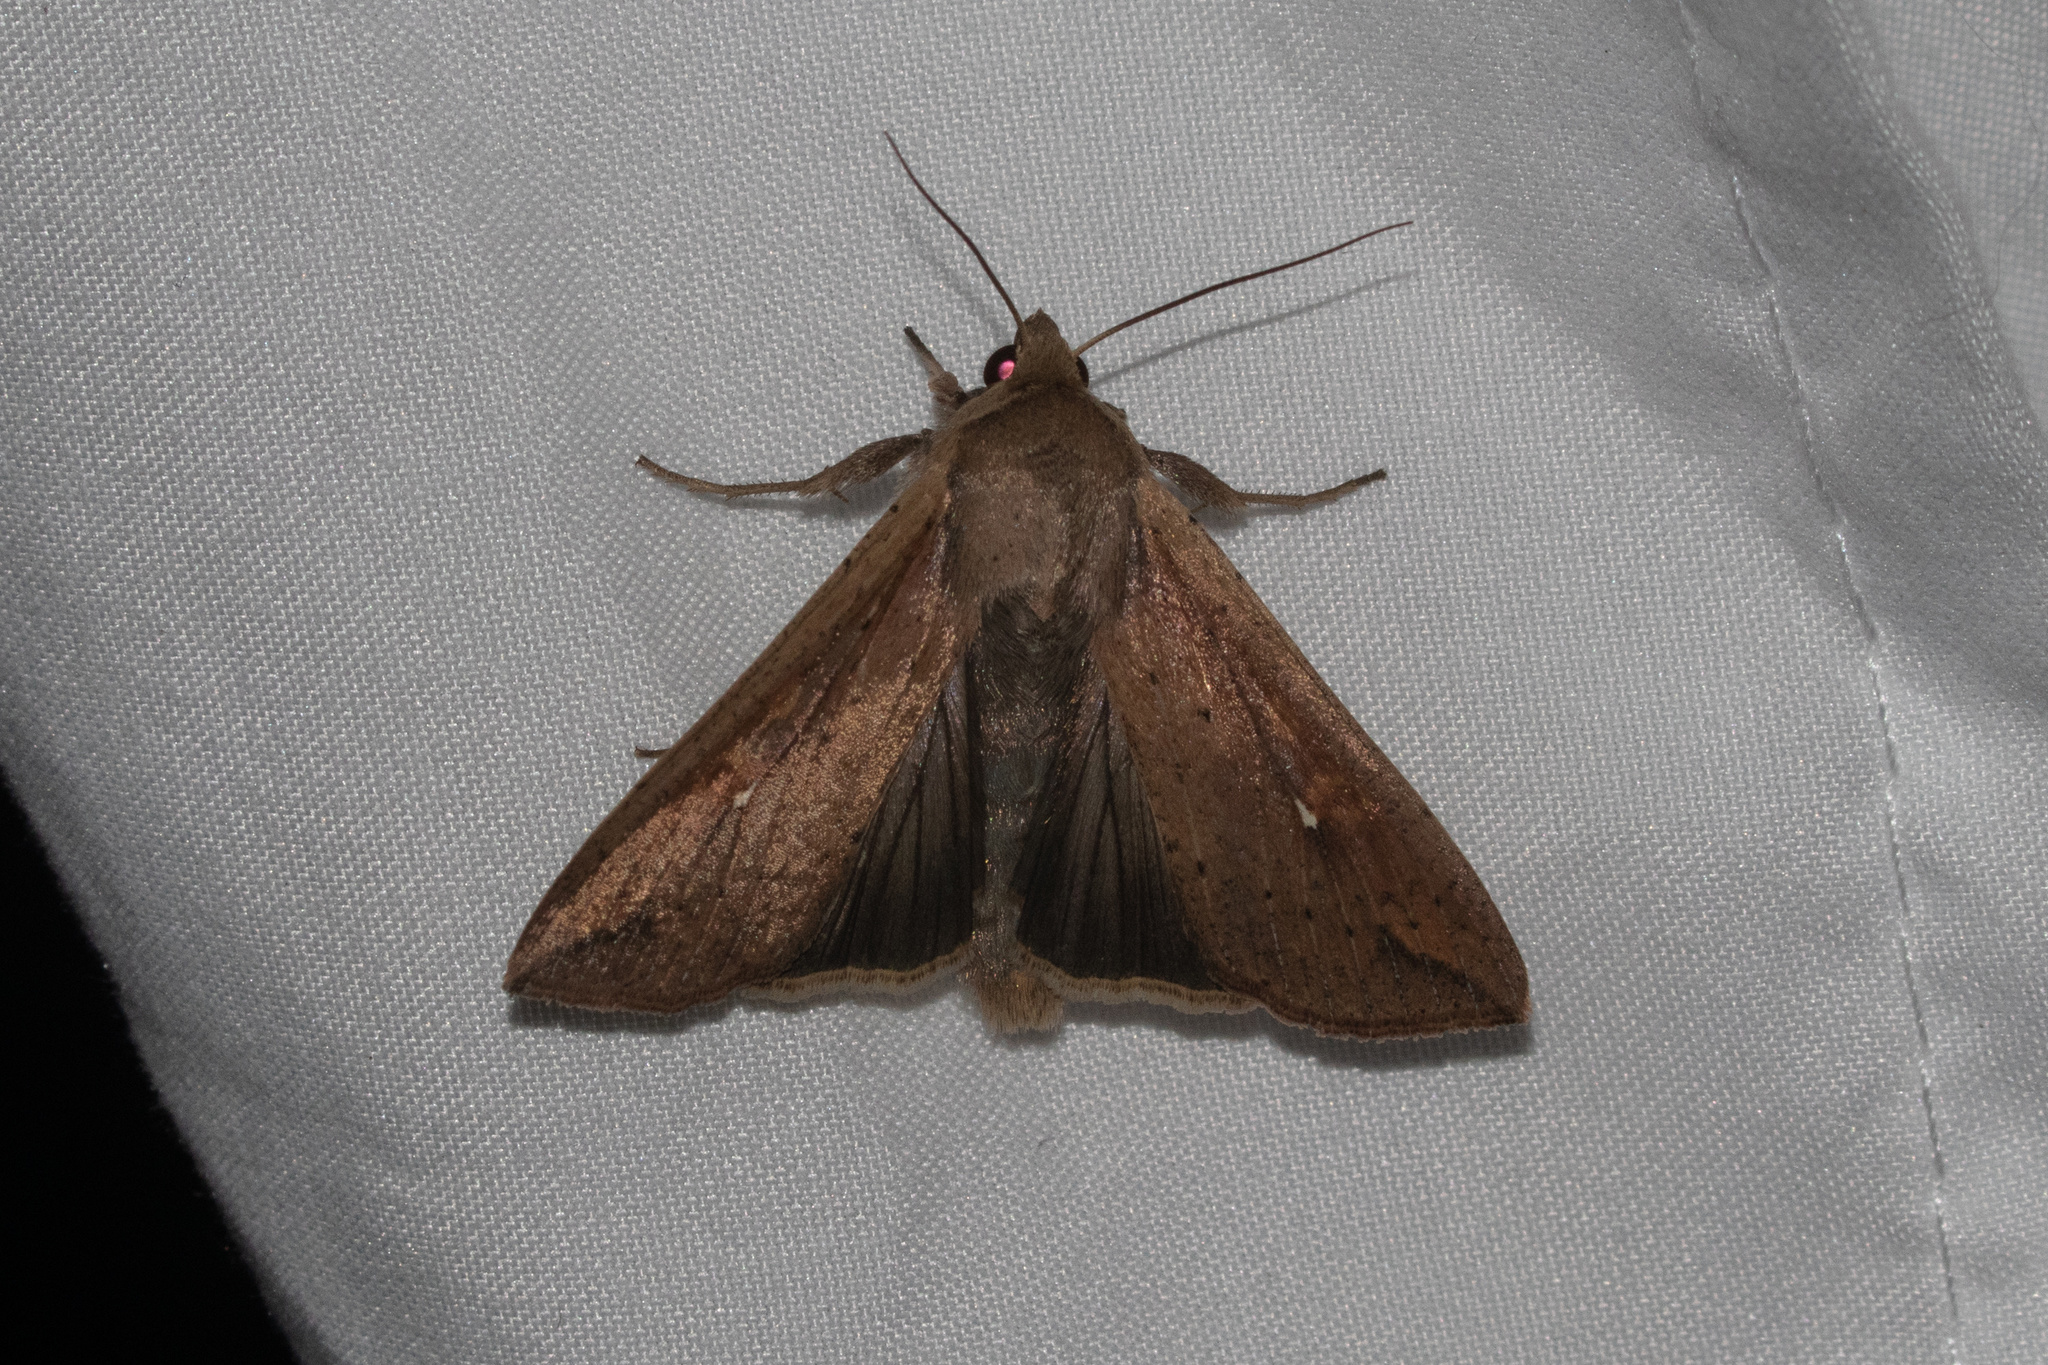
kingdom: Animalia
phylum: Arthropoda
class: Insecta
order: Lepidoptera
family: Noctuidae
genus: Mythimna
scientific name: Mythimna unipuncta
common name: White-speck
